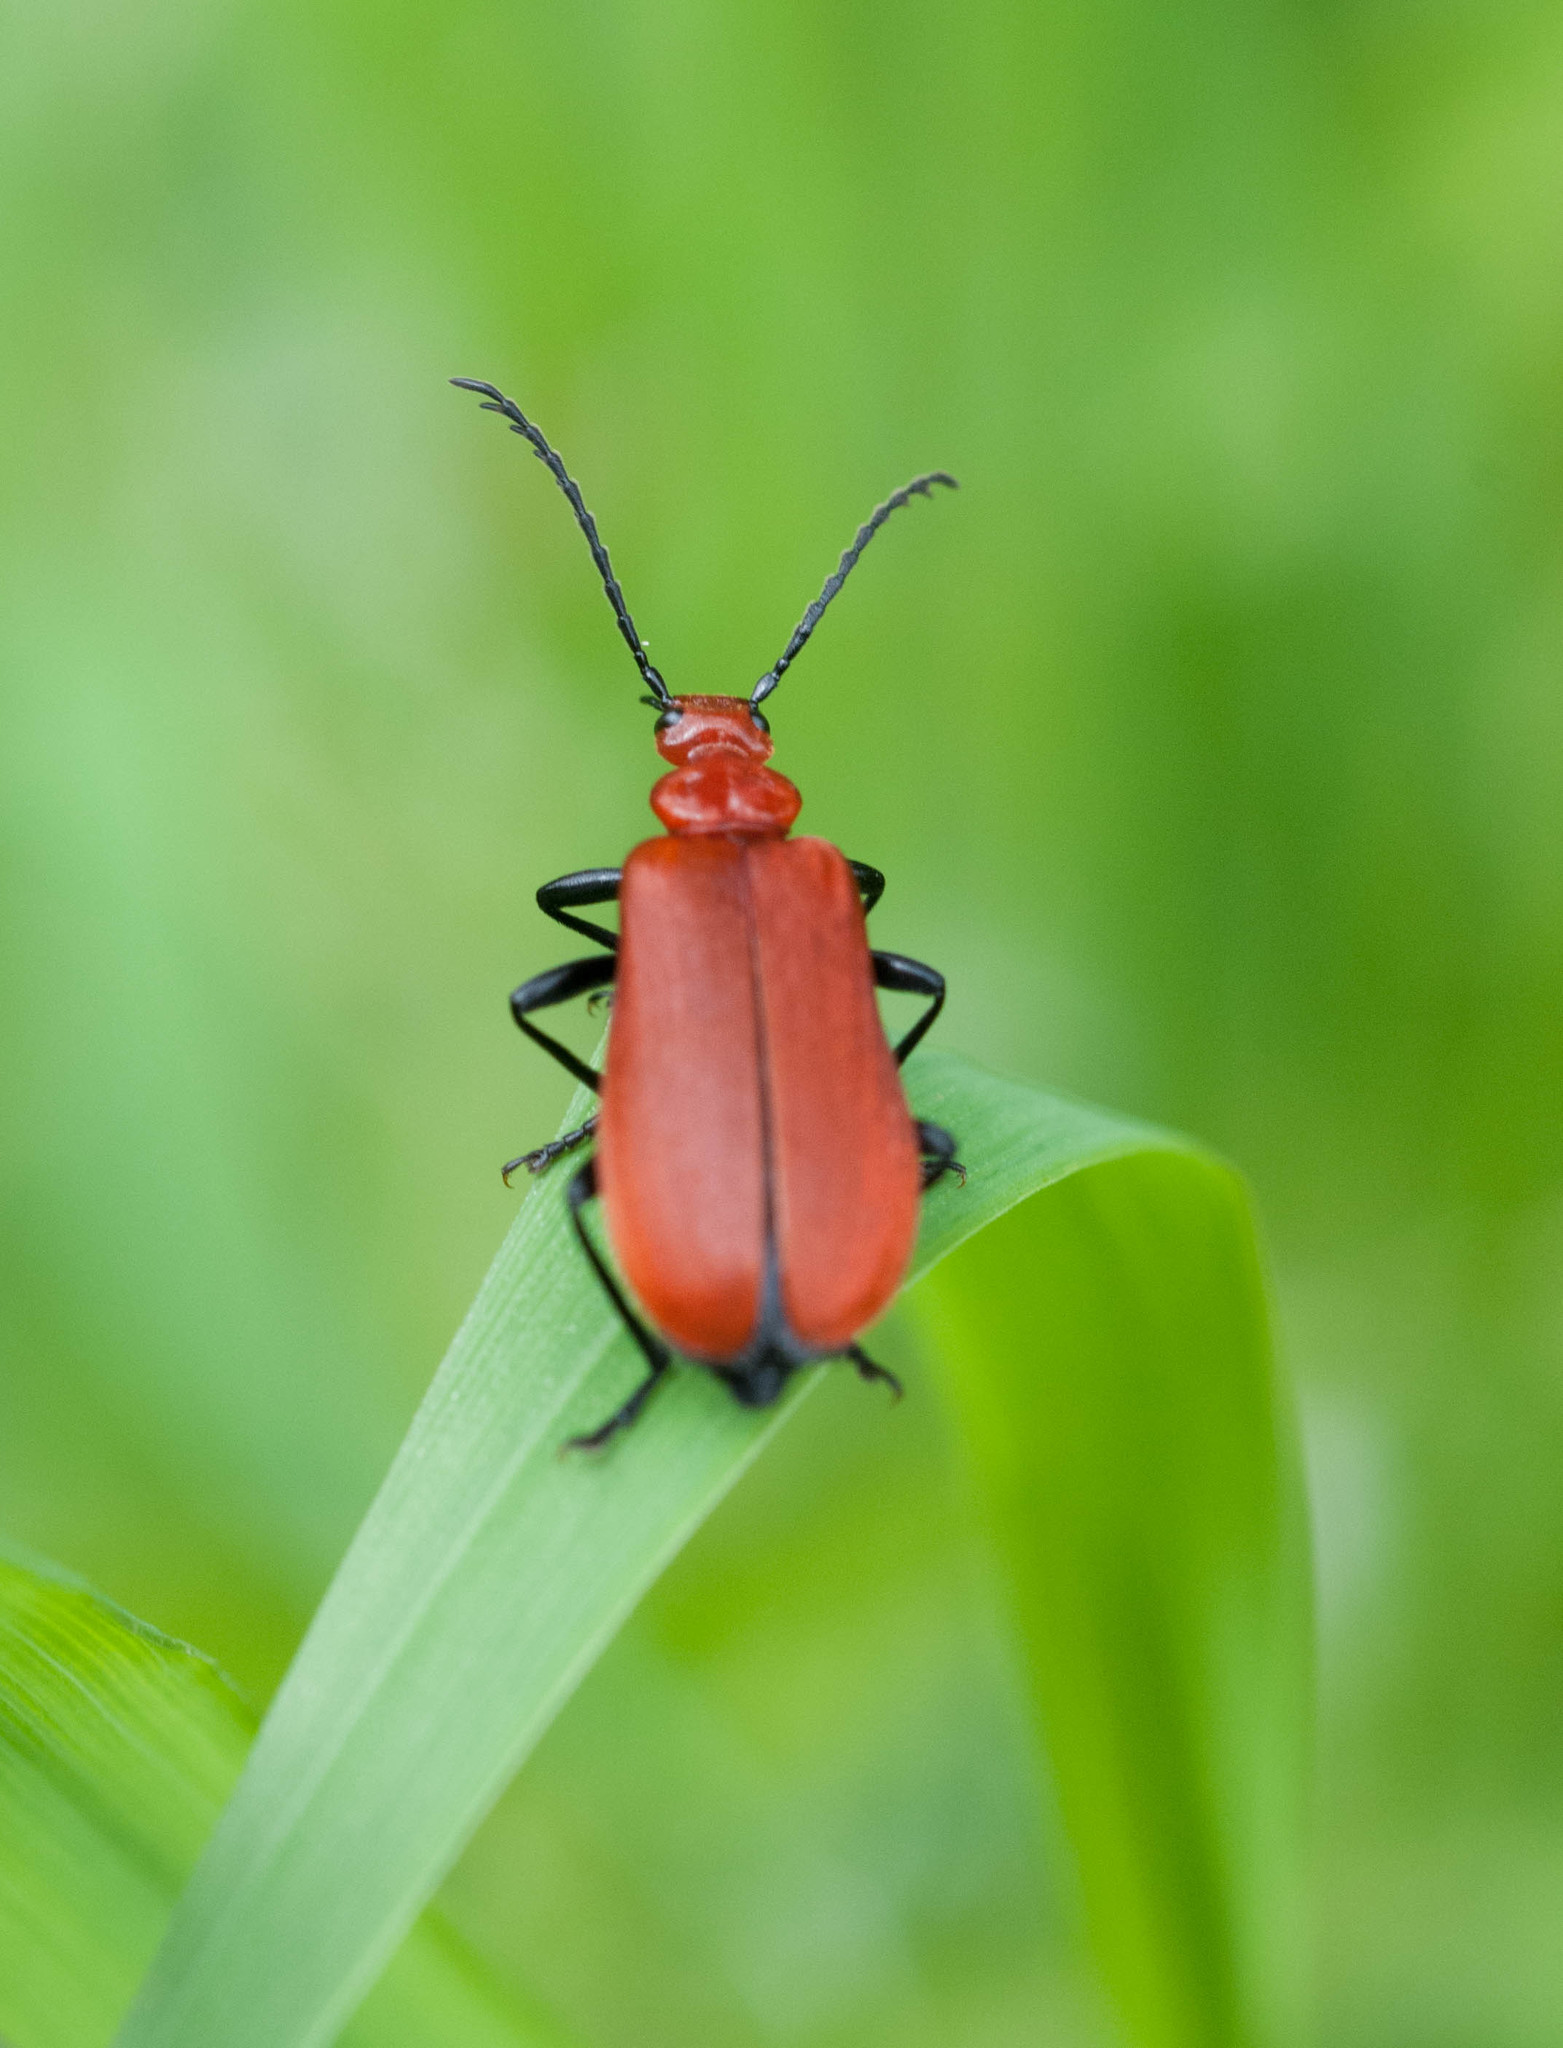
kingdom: Animalia
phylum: Arthropoda
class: Insecta
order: Coleoptera
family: Pyrochroidae
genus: Pyrochroa
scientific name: Pyrochroa serraticornis
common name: Red-headed cardinal beetle
